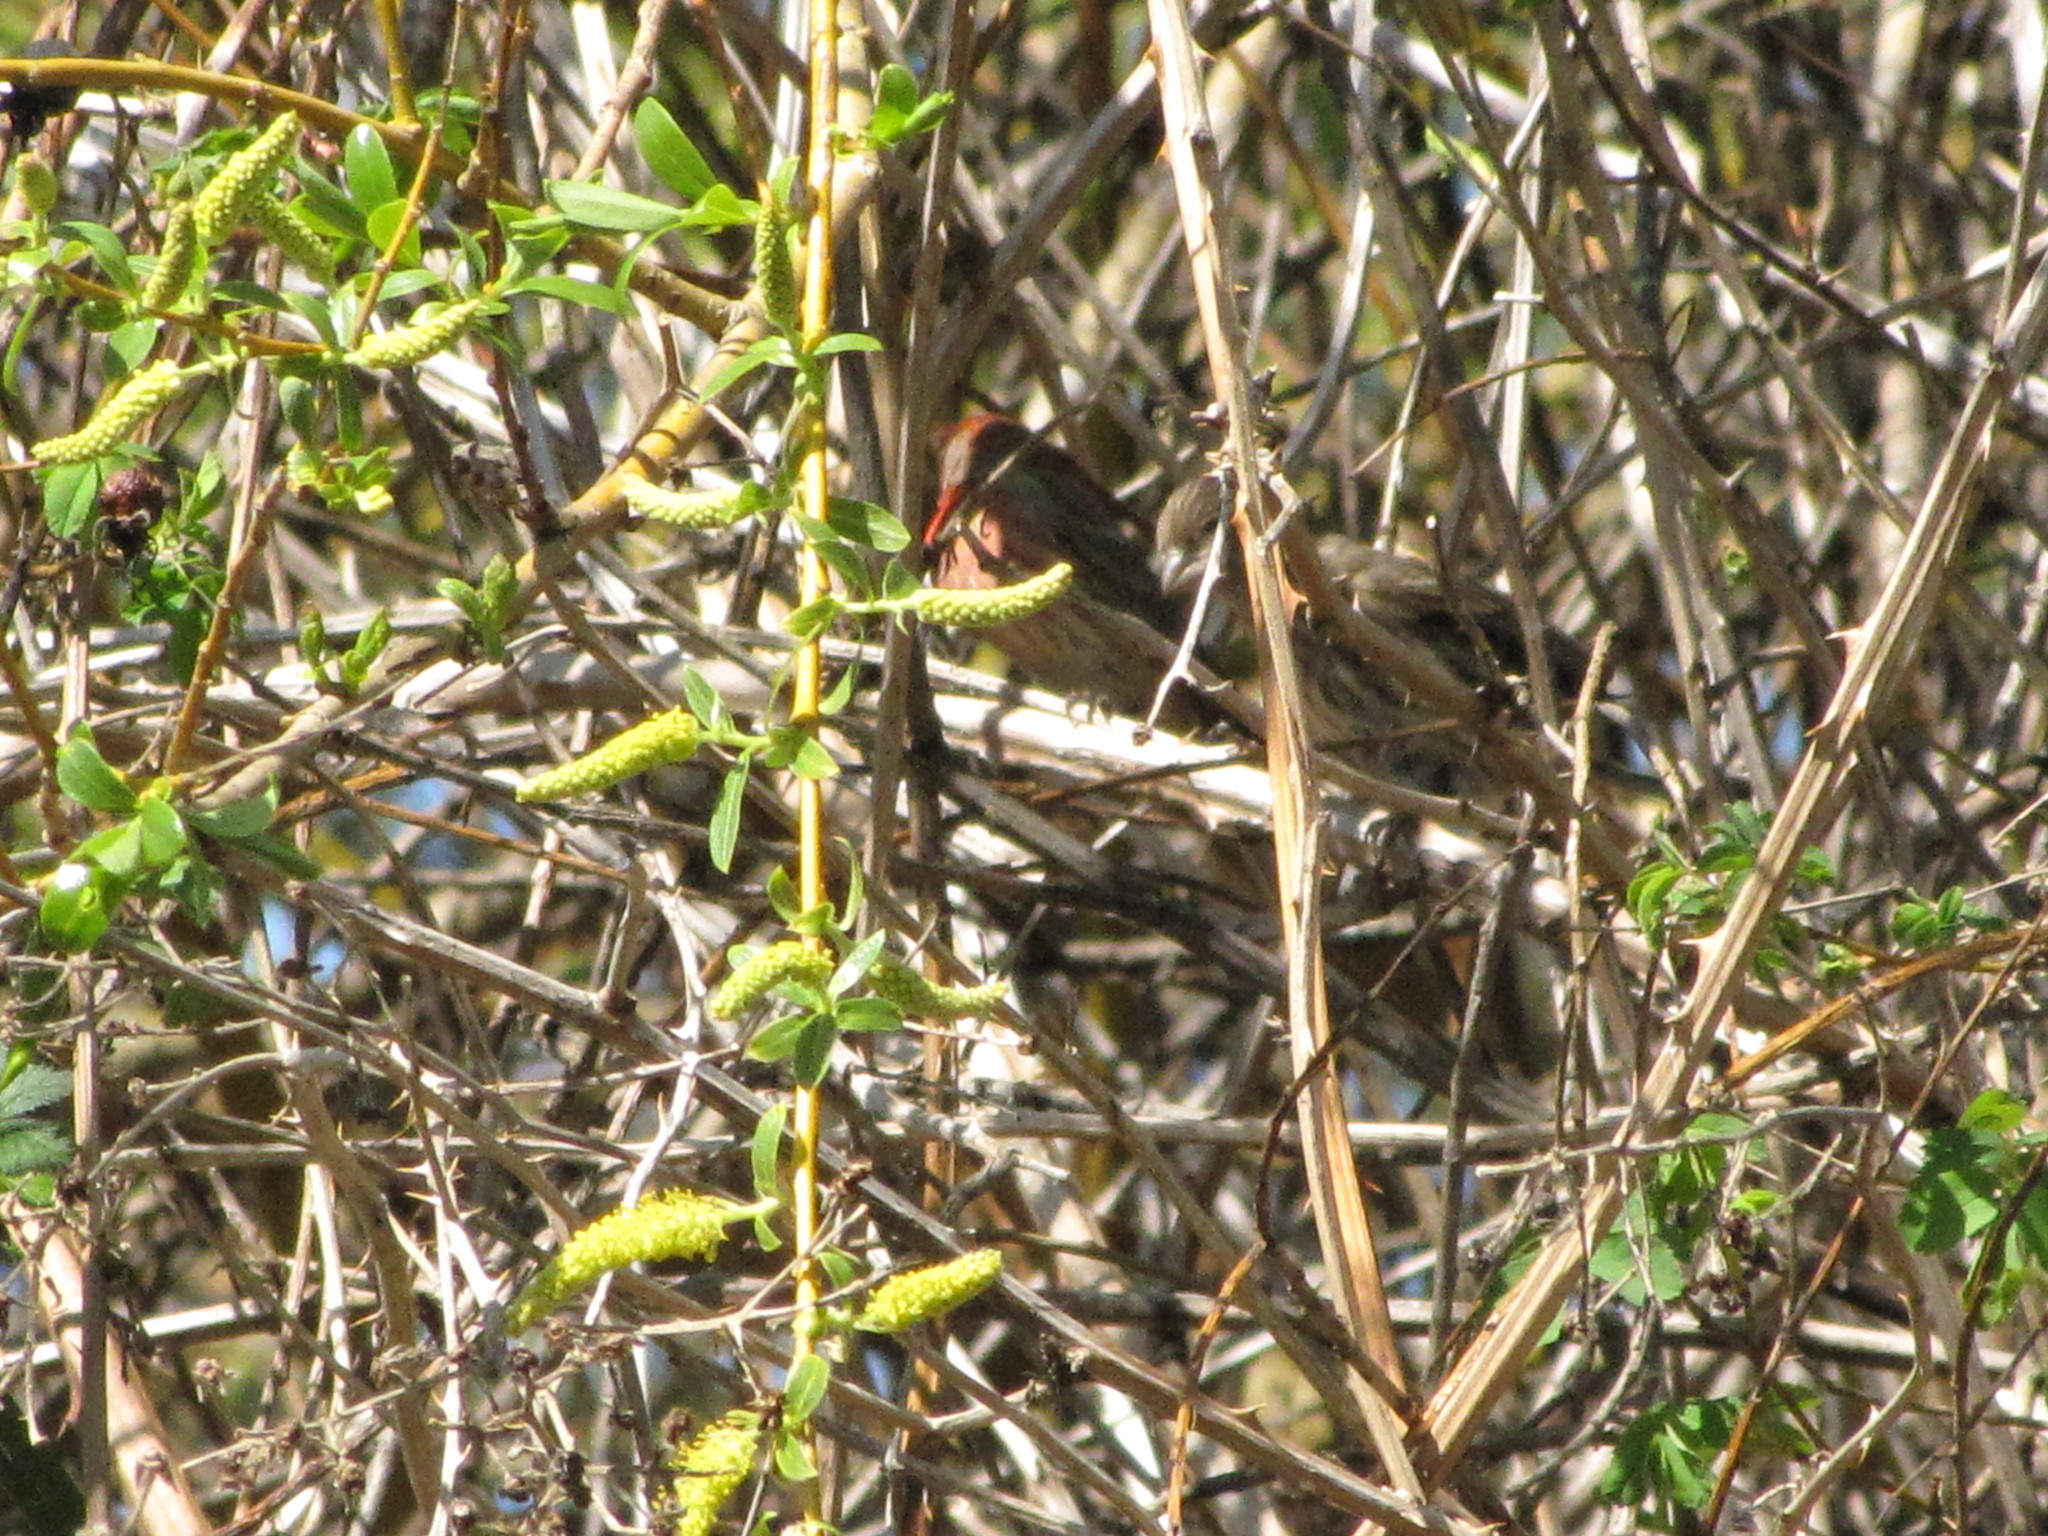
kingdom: Animalia
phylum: Chordata
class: Aves
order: Passeriformes
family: Fringillidae
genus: Haemorhous
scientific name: Haemorhous mexicanus
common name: House finch
